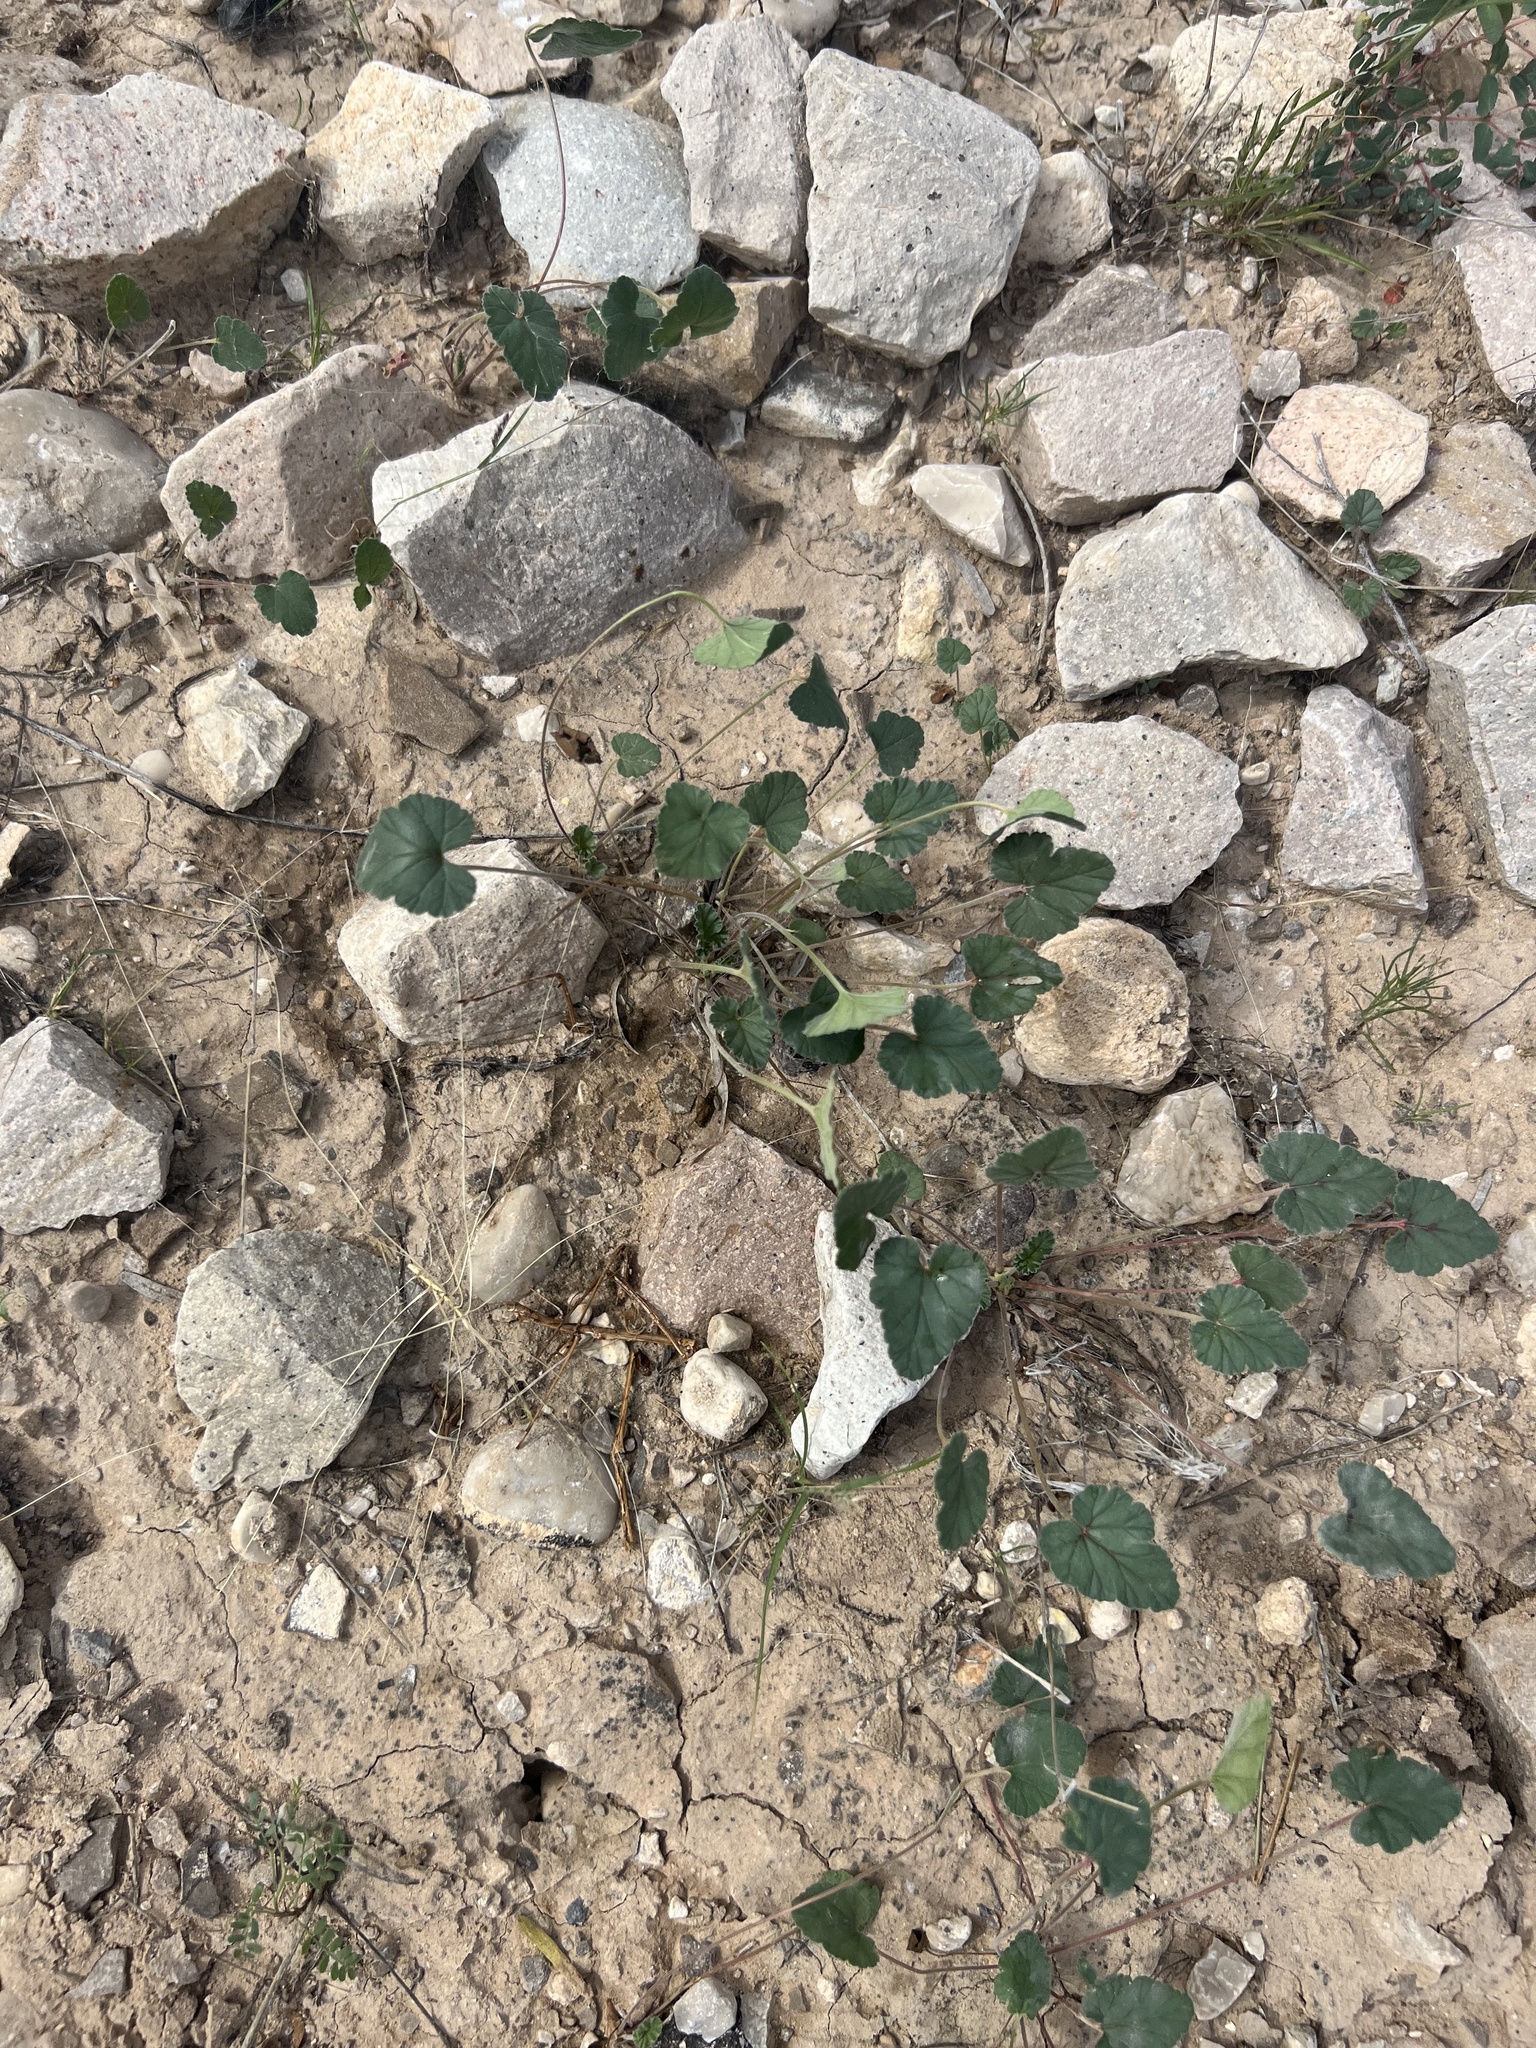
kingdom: Plantae
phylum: Tracheophyta
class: Magnoliopsida
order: Geraniales
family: Geraniaceae
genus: Erodium
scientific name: Erodium texanum
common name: Texas stork's-bill
